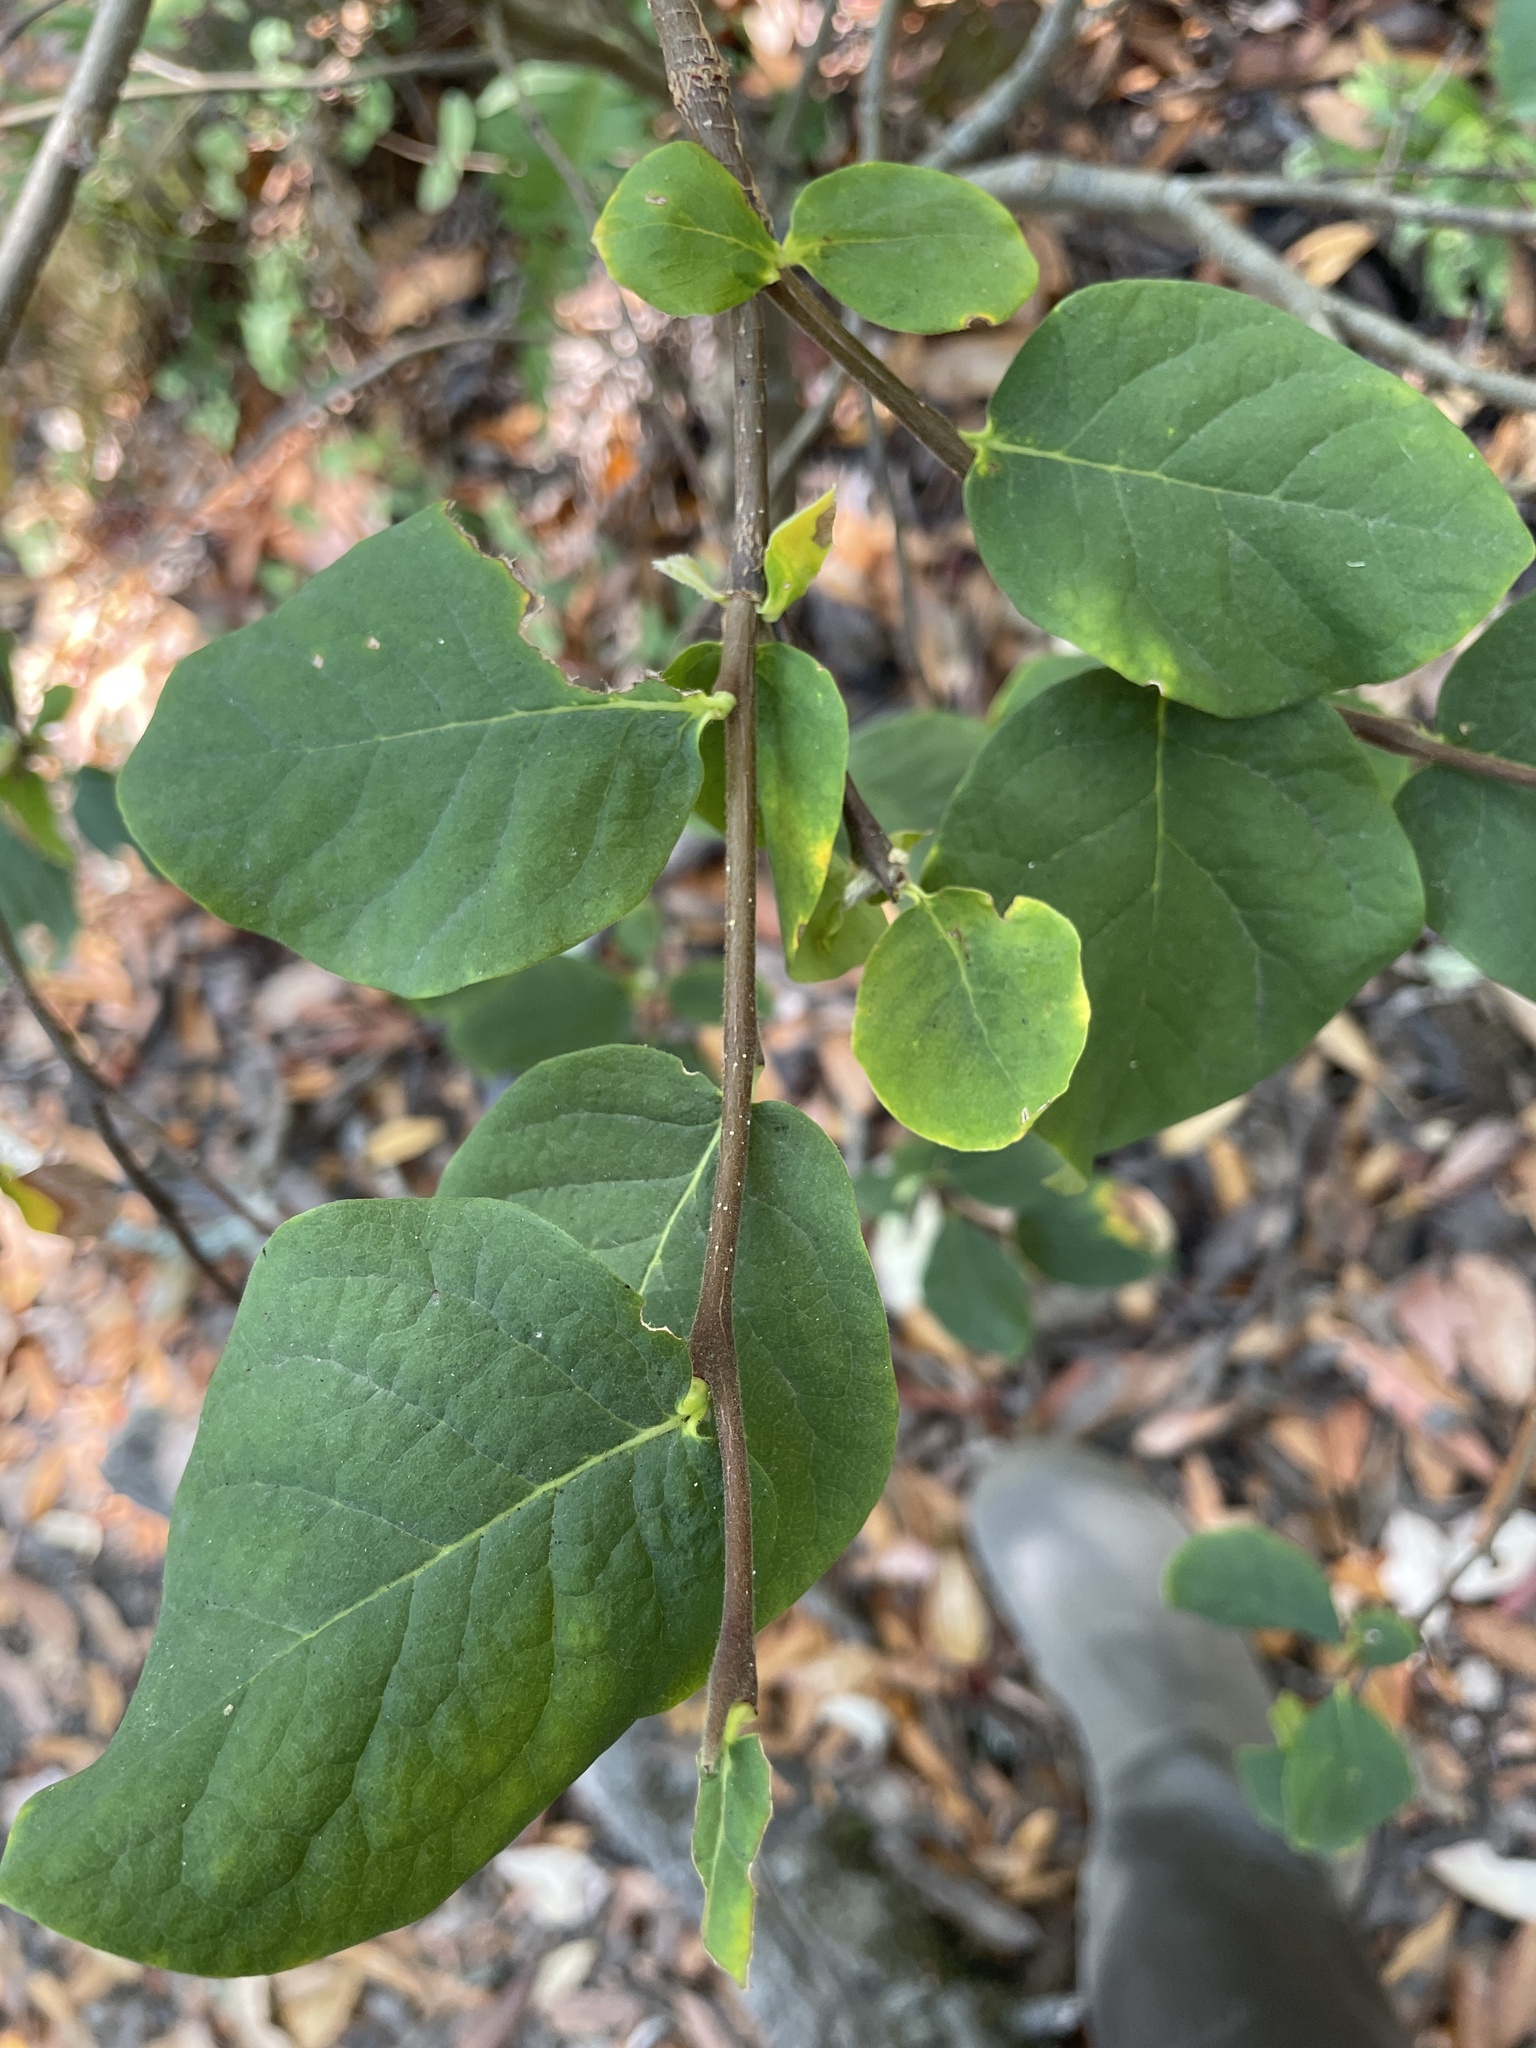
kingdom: Plantae
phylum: Tracheophyta
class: Magnoliopsida
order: Malvales
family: Thymelaeaceae
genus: Dirca
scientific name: Dirca occidentalis
